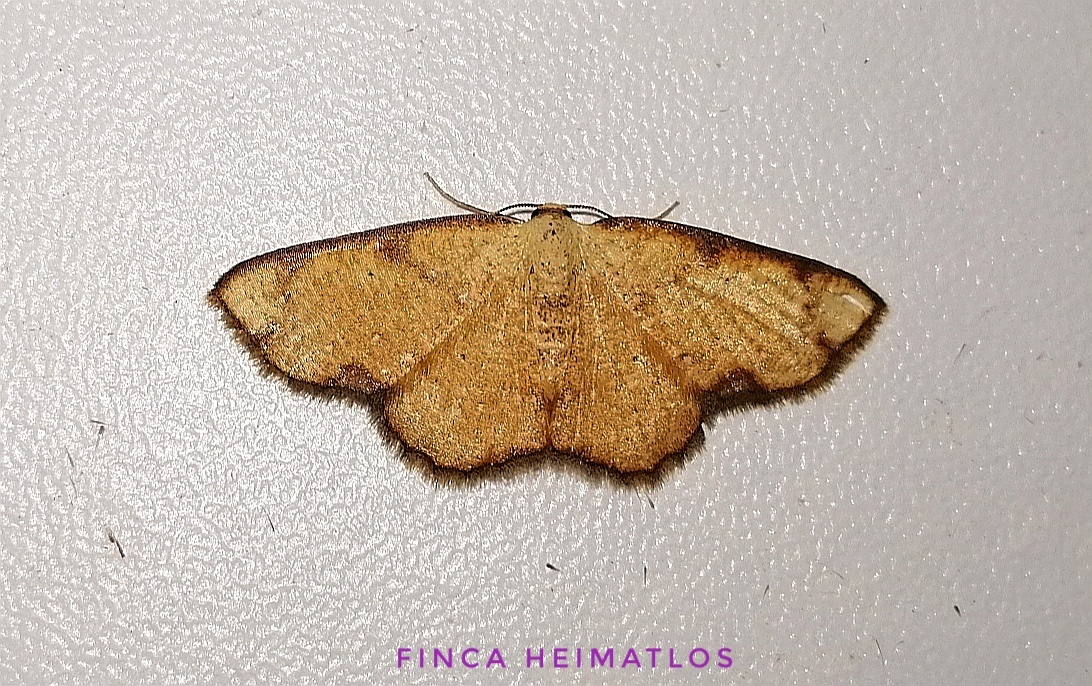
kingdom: Animalia
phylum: Arthropoda
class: Insecta
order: Lepidoptera
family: Geometridae
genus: Nematocampa
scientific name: Nematocampa confusa
